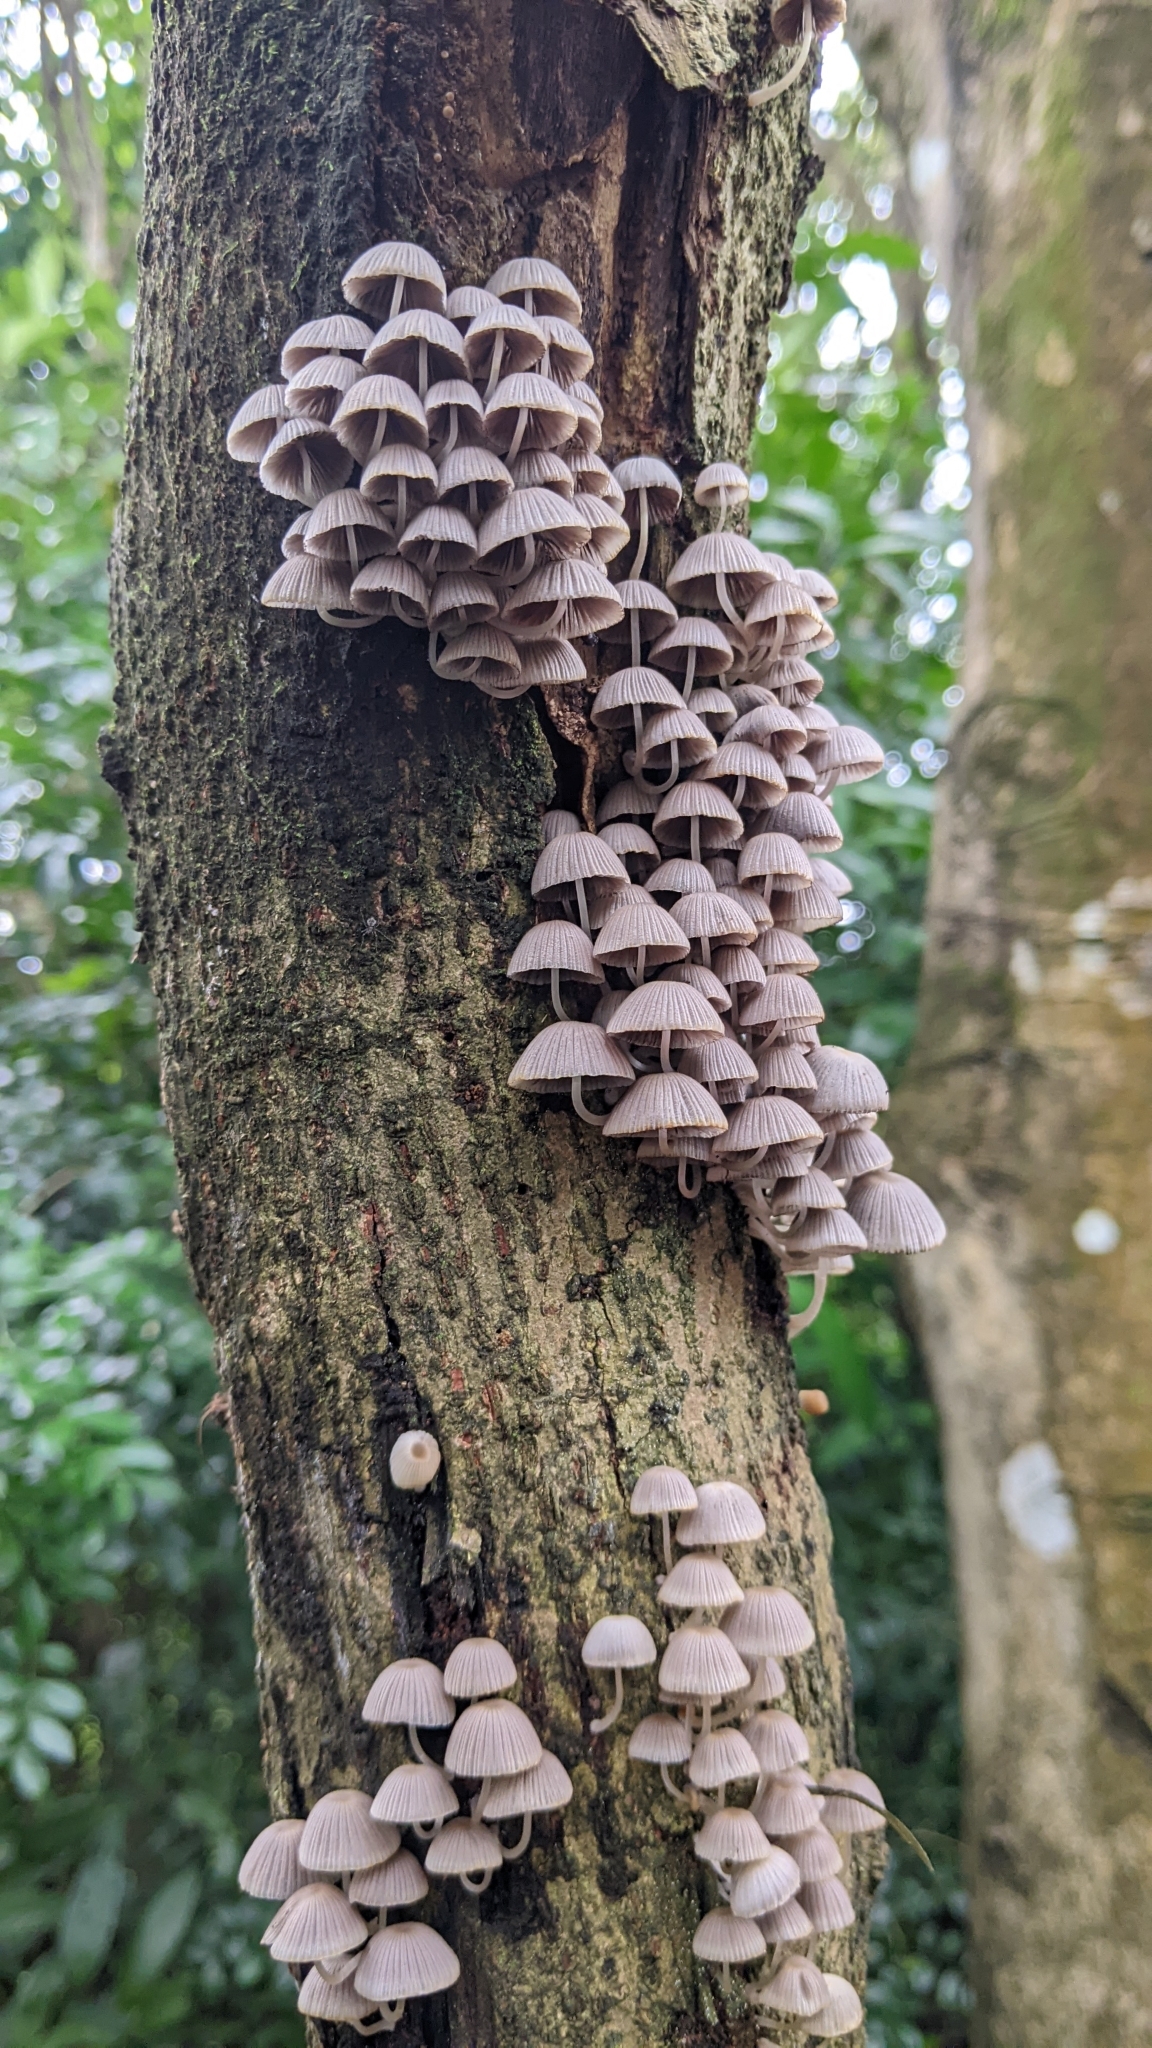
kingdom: Fungi
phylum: Basidiomycota
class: Agaricomycetes
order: Agaricales
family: Psathyrellaceae
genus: Coprinellus
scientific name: Coprinellus disseminatus
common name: Fairies' bonnets
